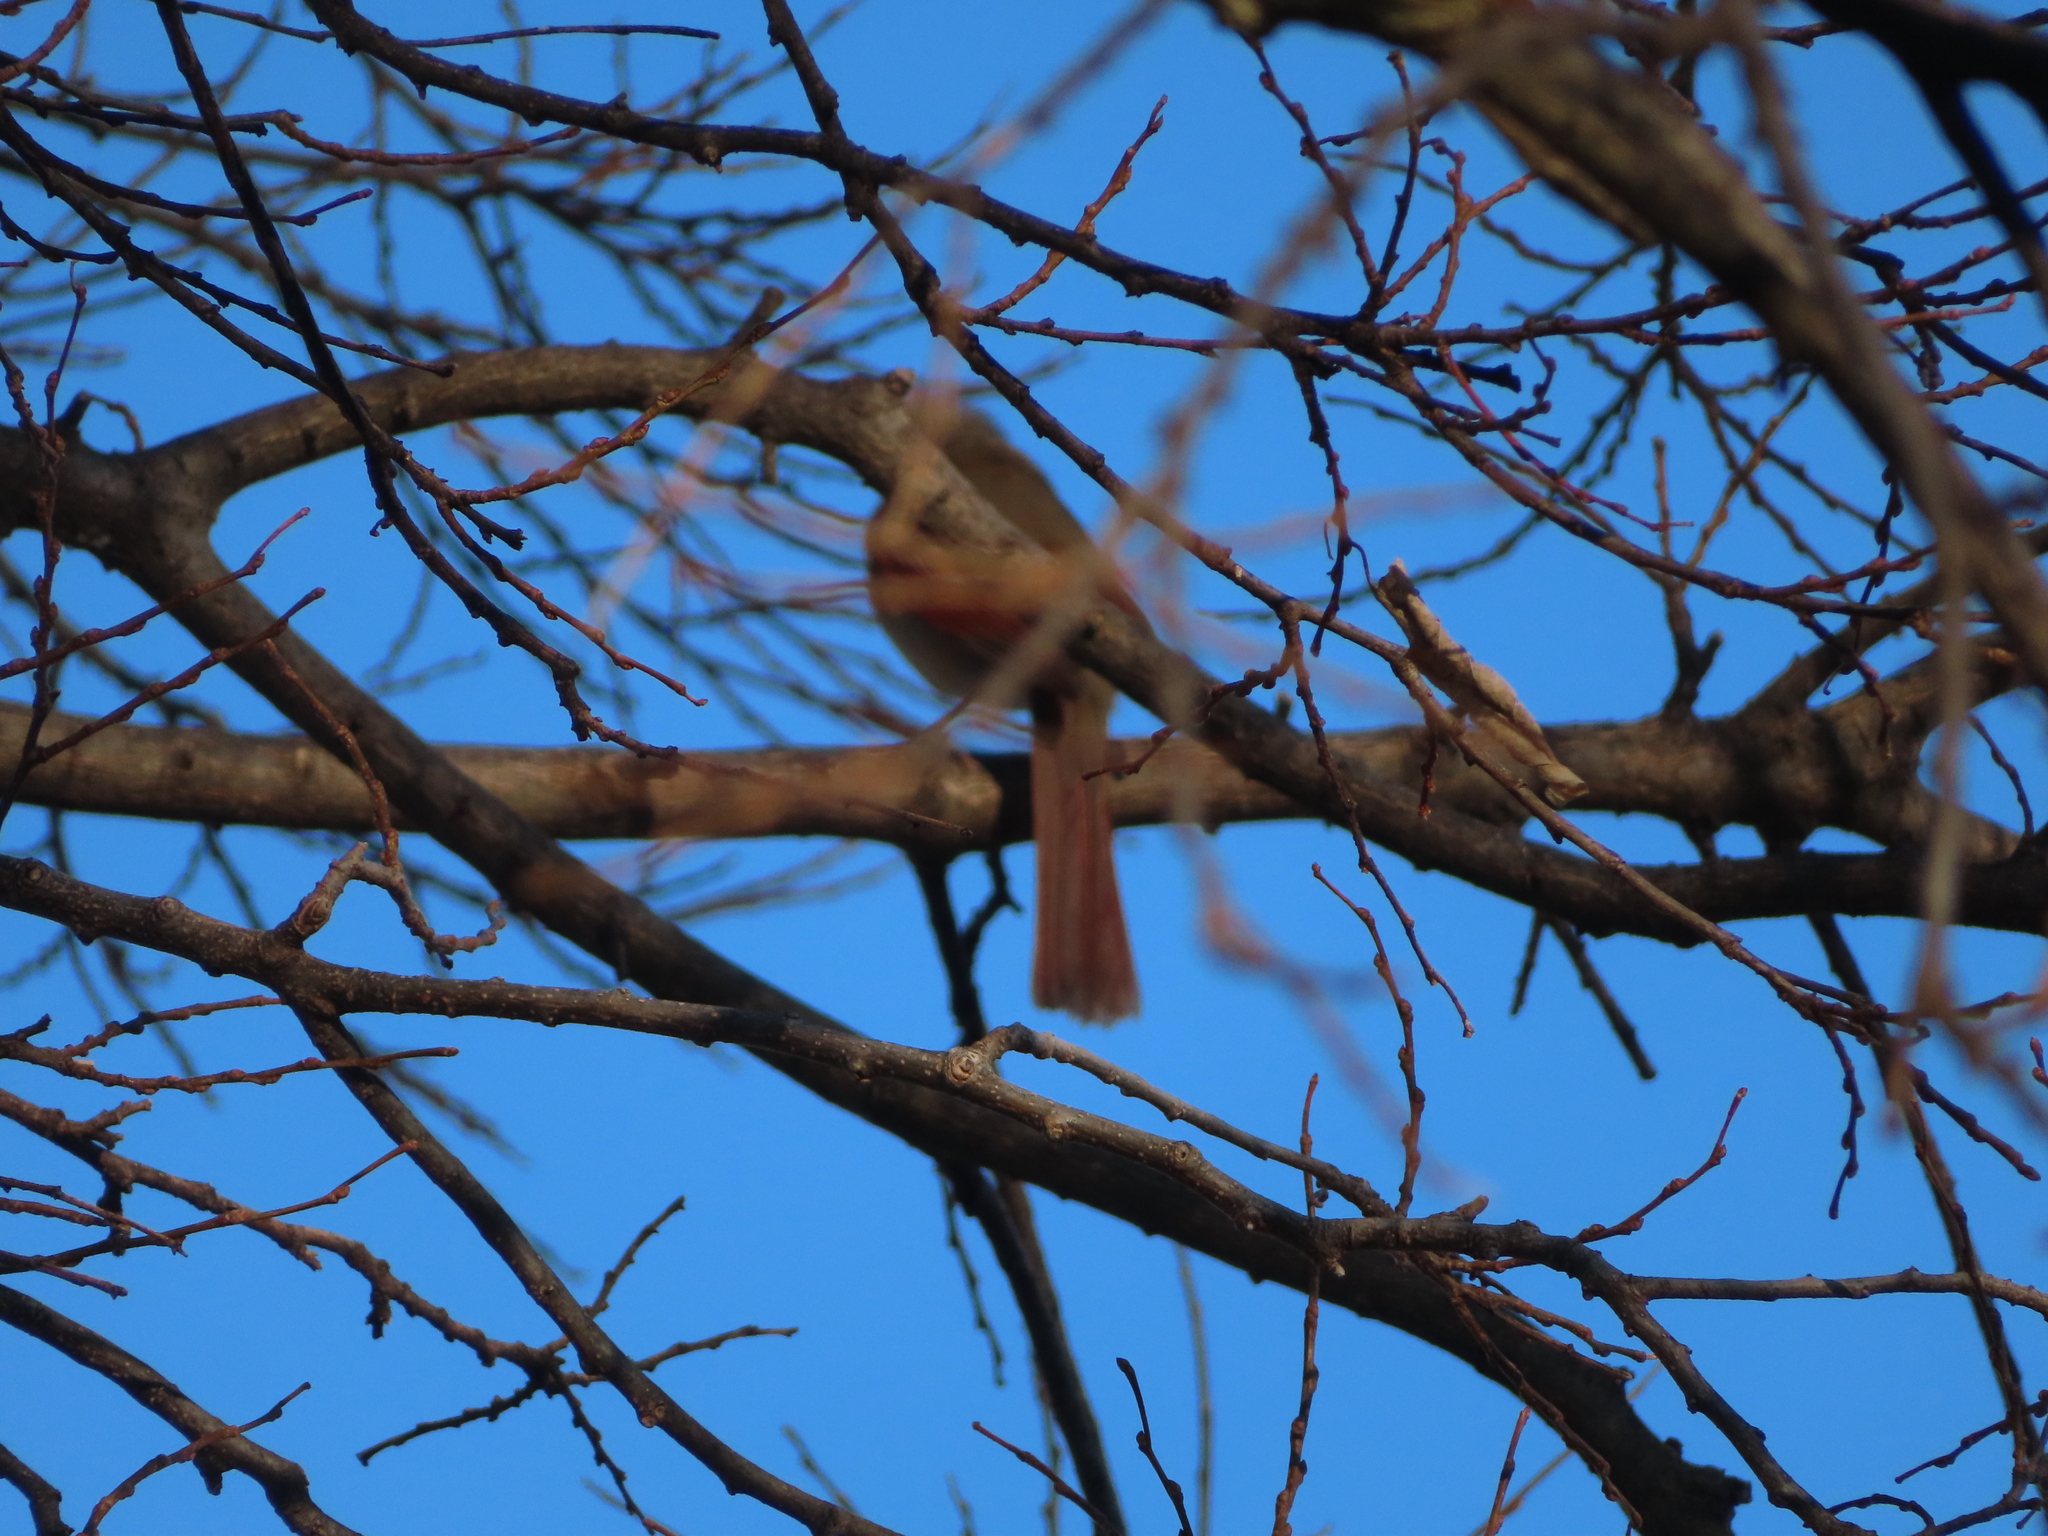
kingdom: Animalia
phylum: Chordata
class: Aves
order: Passeriformes
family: Cardinalidae
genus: Cardinalis
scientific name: Cardinalis cardinalis
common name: Northern cardinal
